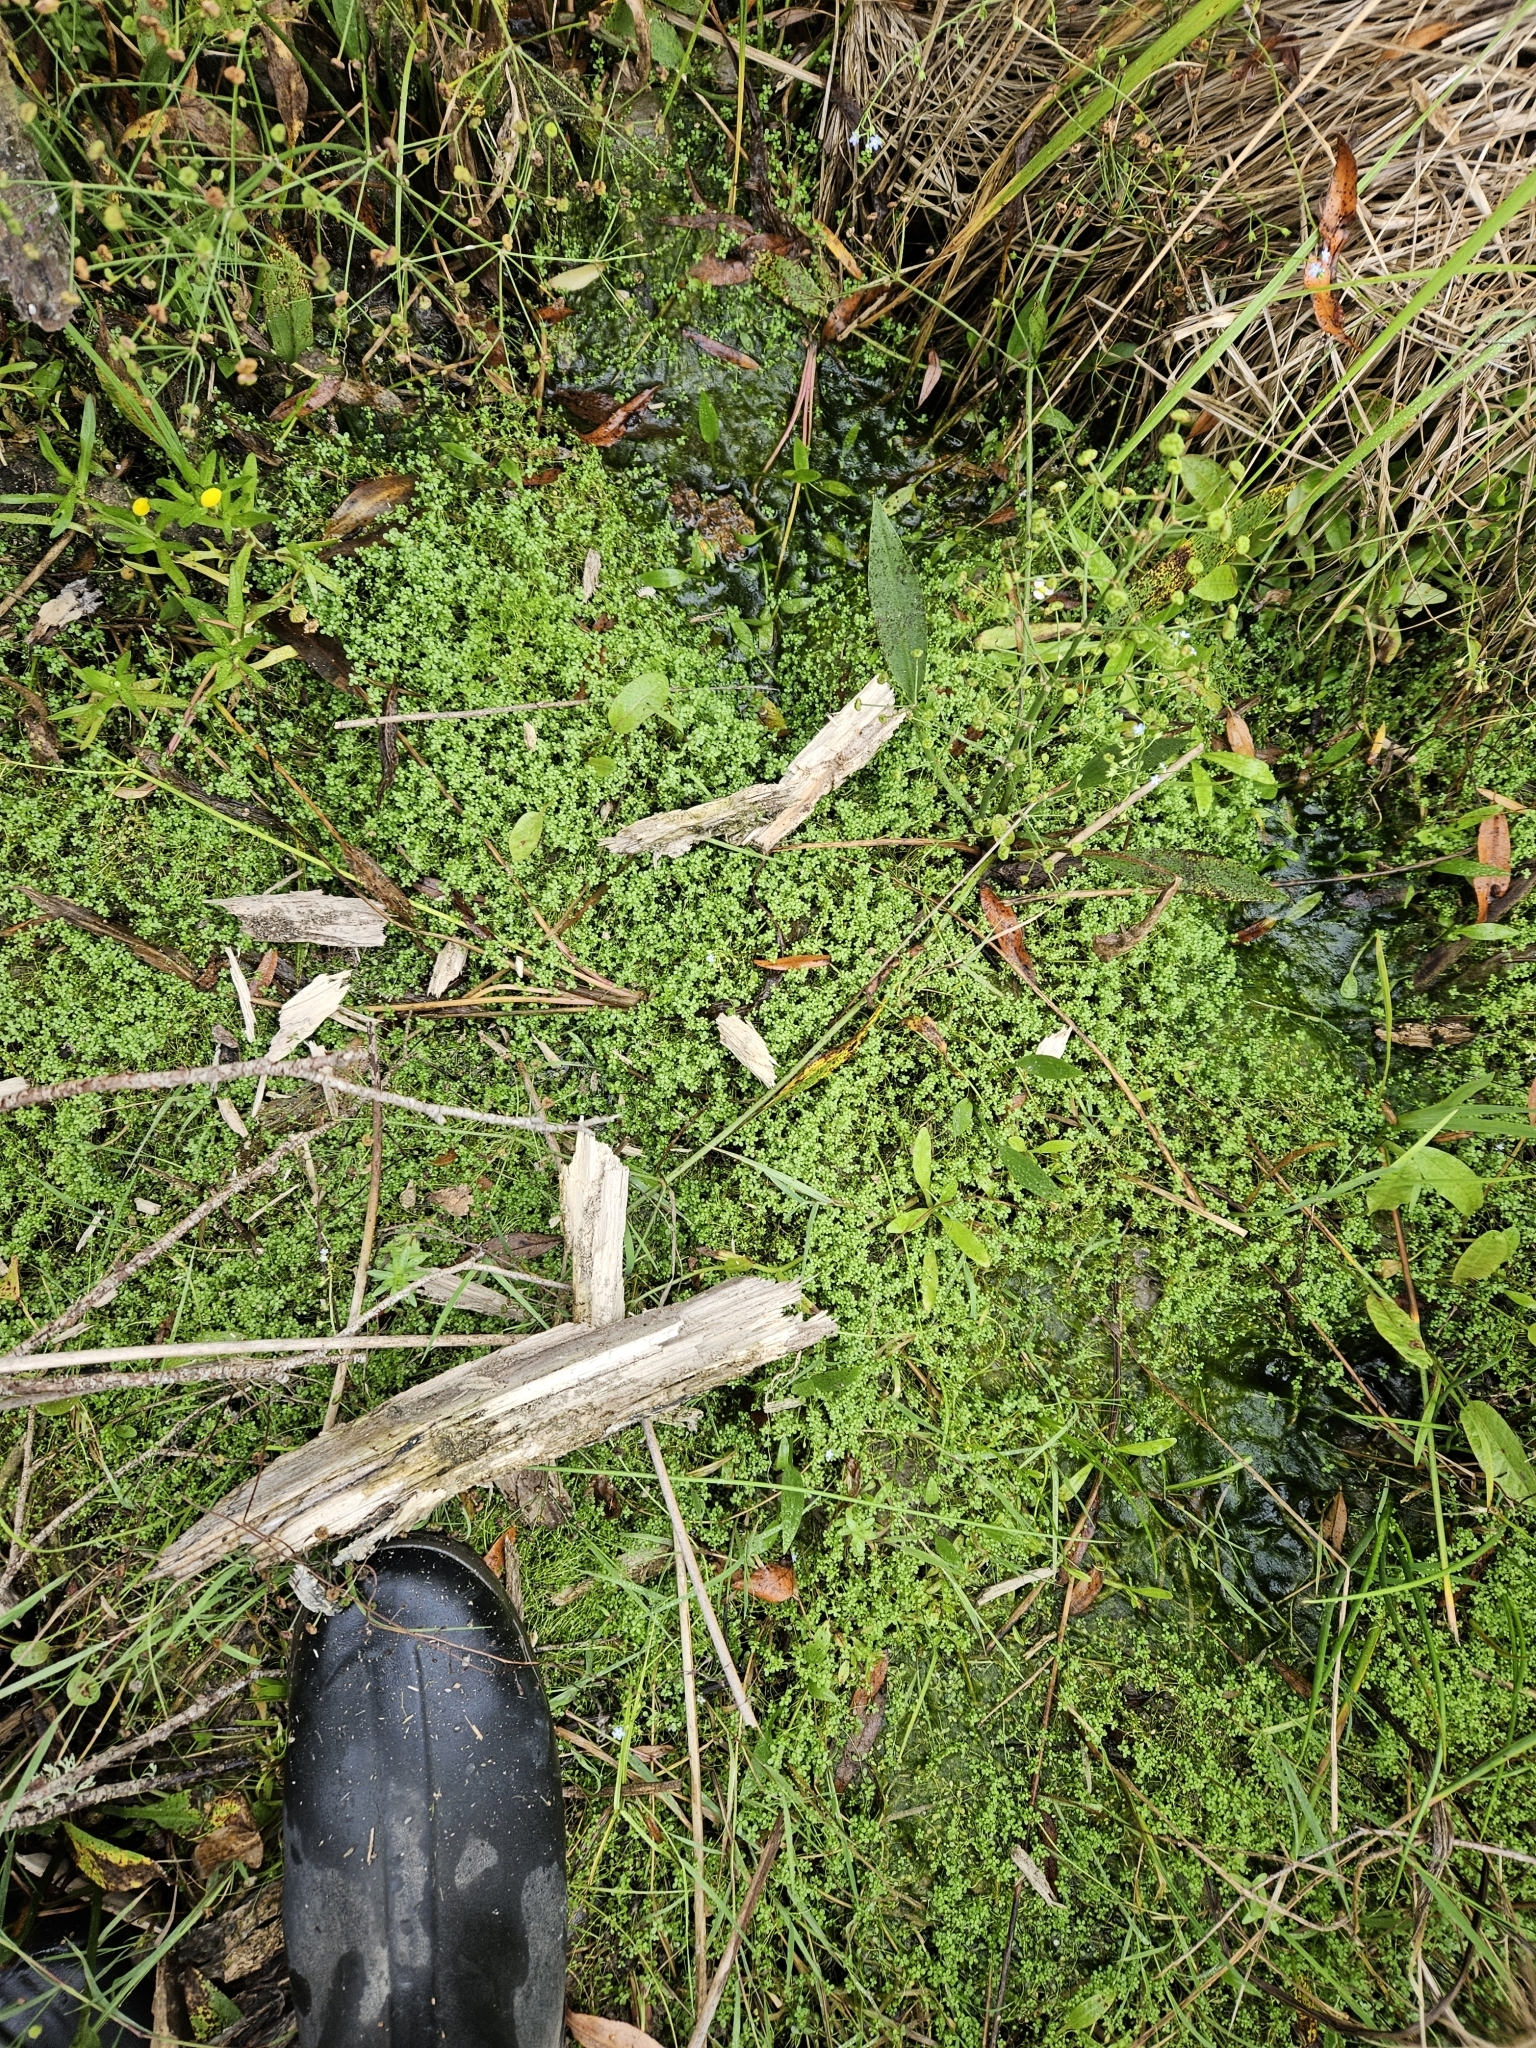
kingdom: Plantae
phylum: Tracheophyta
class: Magnoliopsida
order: Lamiales
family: Plantaginaceae
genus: Callitriche
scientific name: Callitriche stagnalis
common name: Common water-starwort
